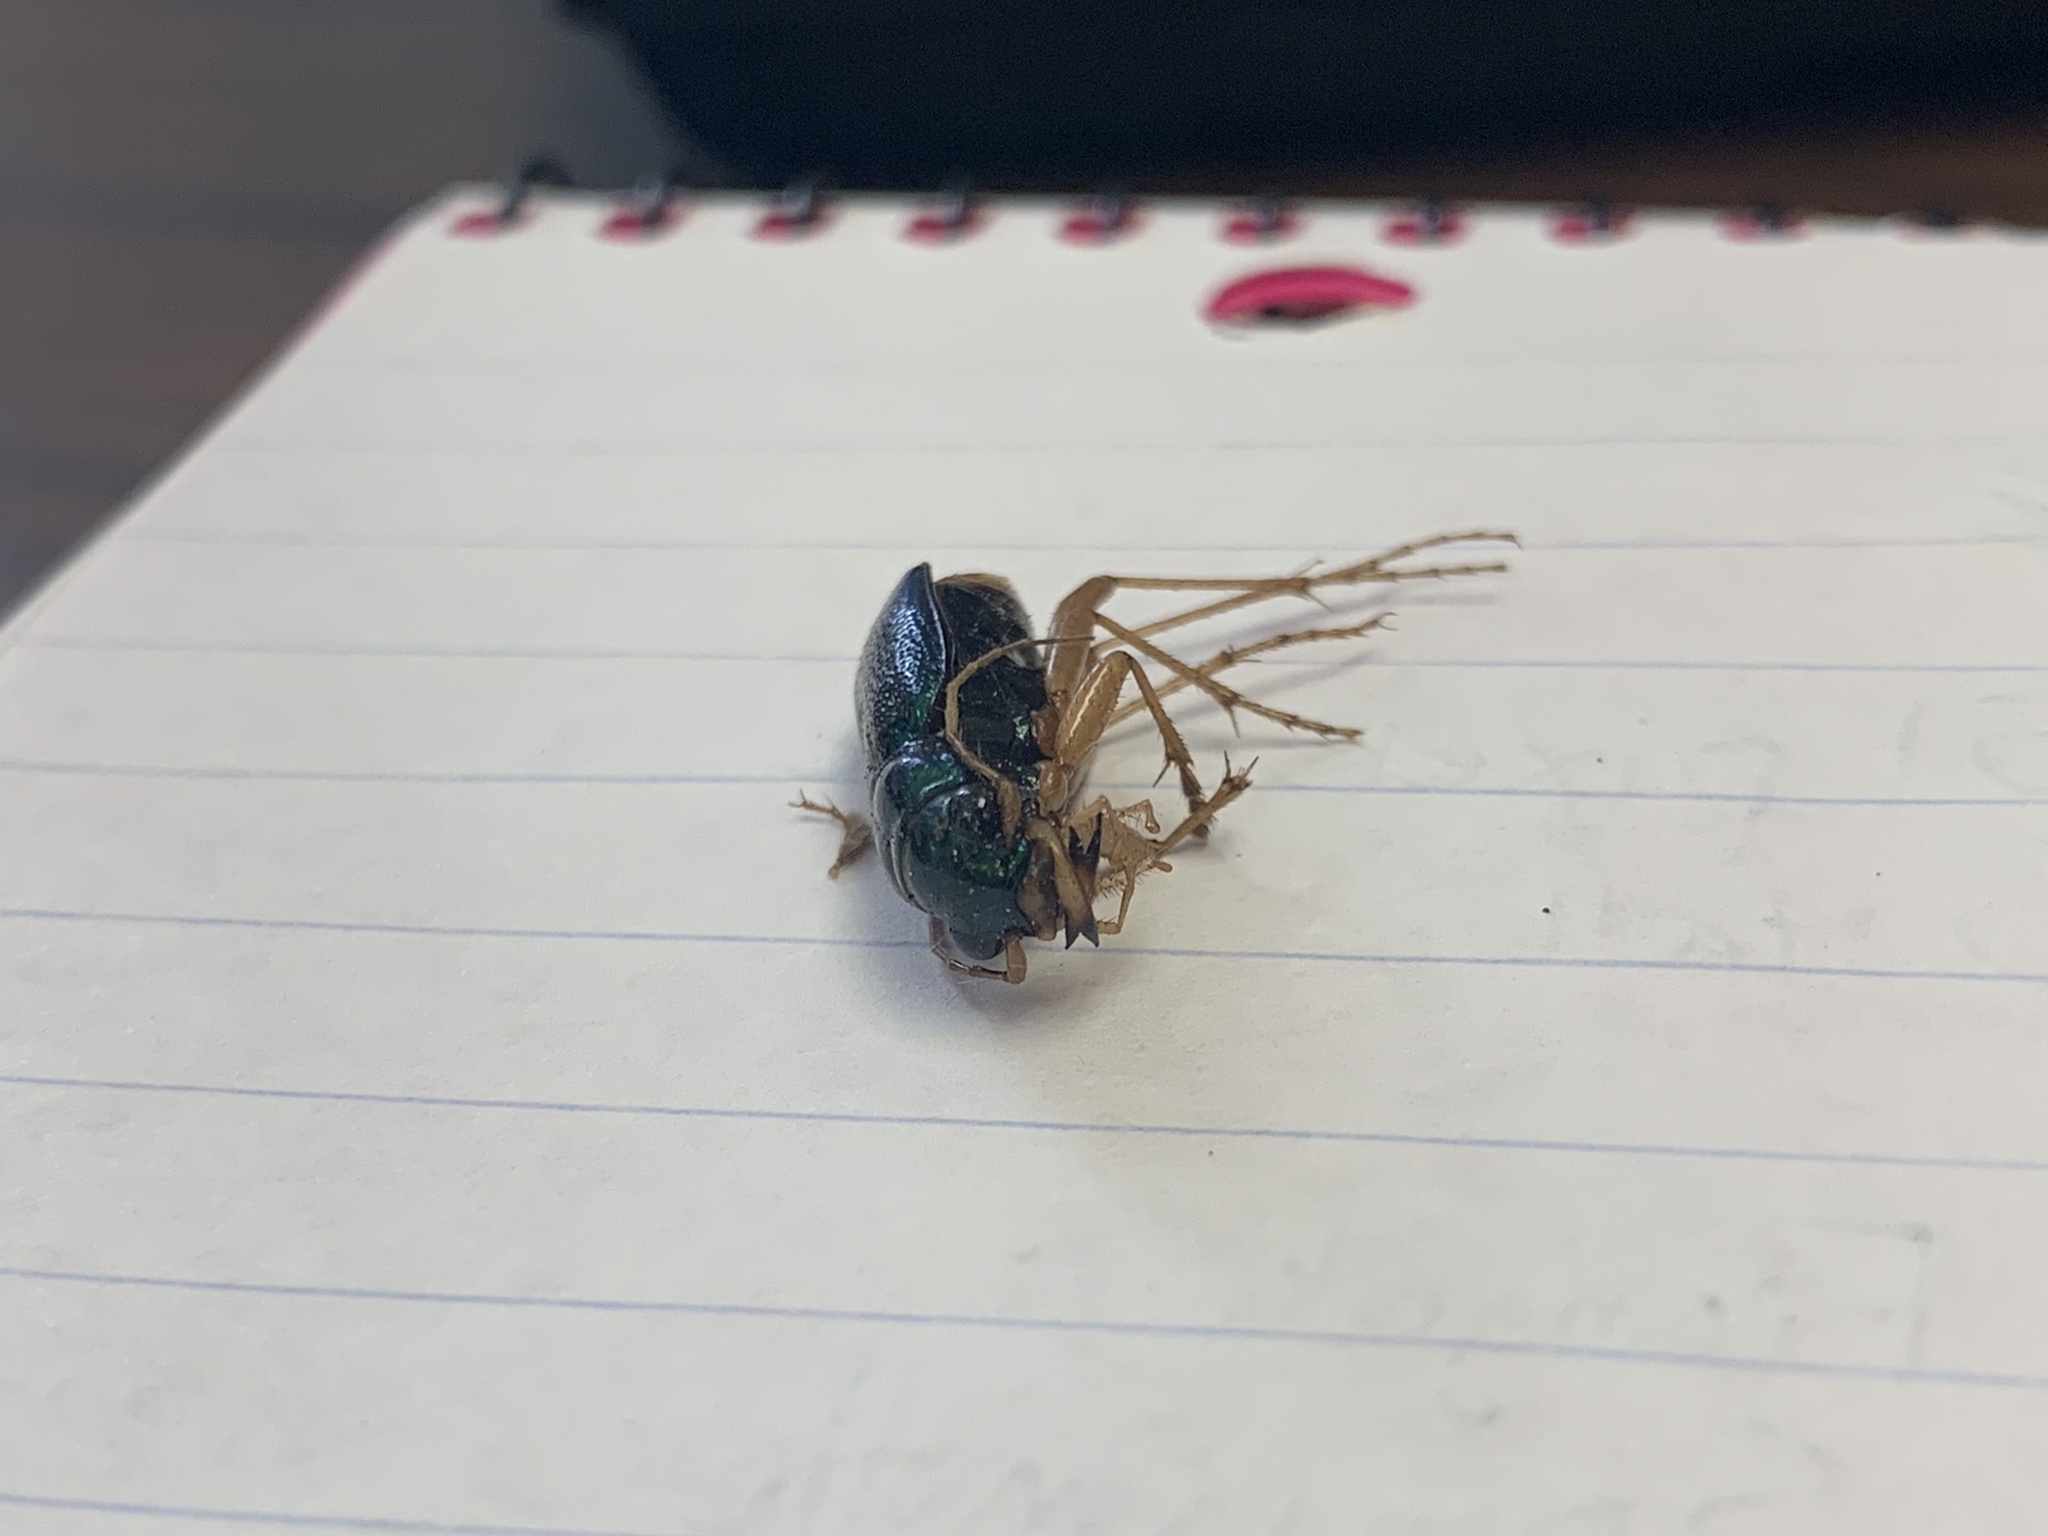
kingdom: Animalia
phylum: Arthropoda
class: Insecta
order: Coleoptera
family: Carabidae
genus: Tetracha
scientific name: Tetracha virginica
